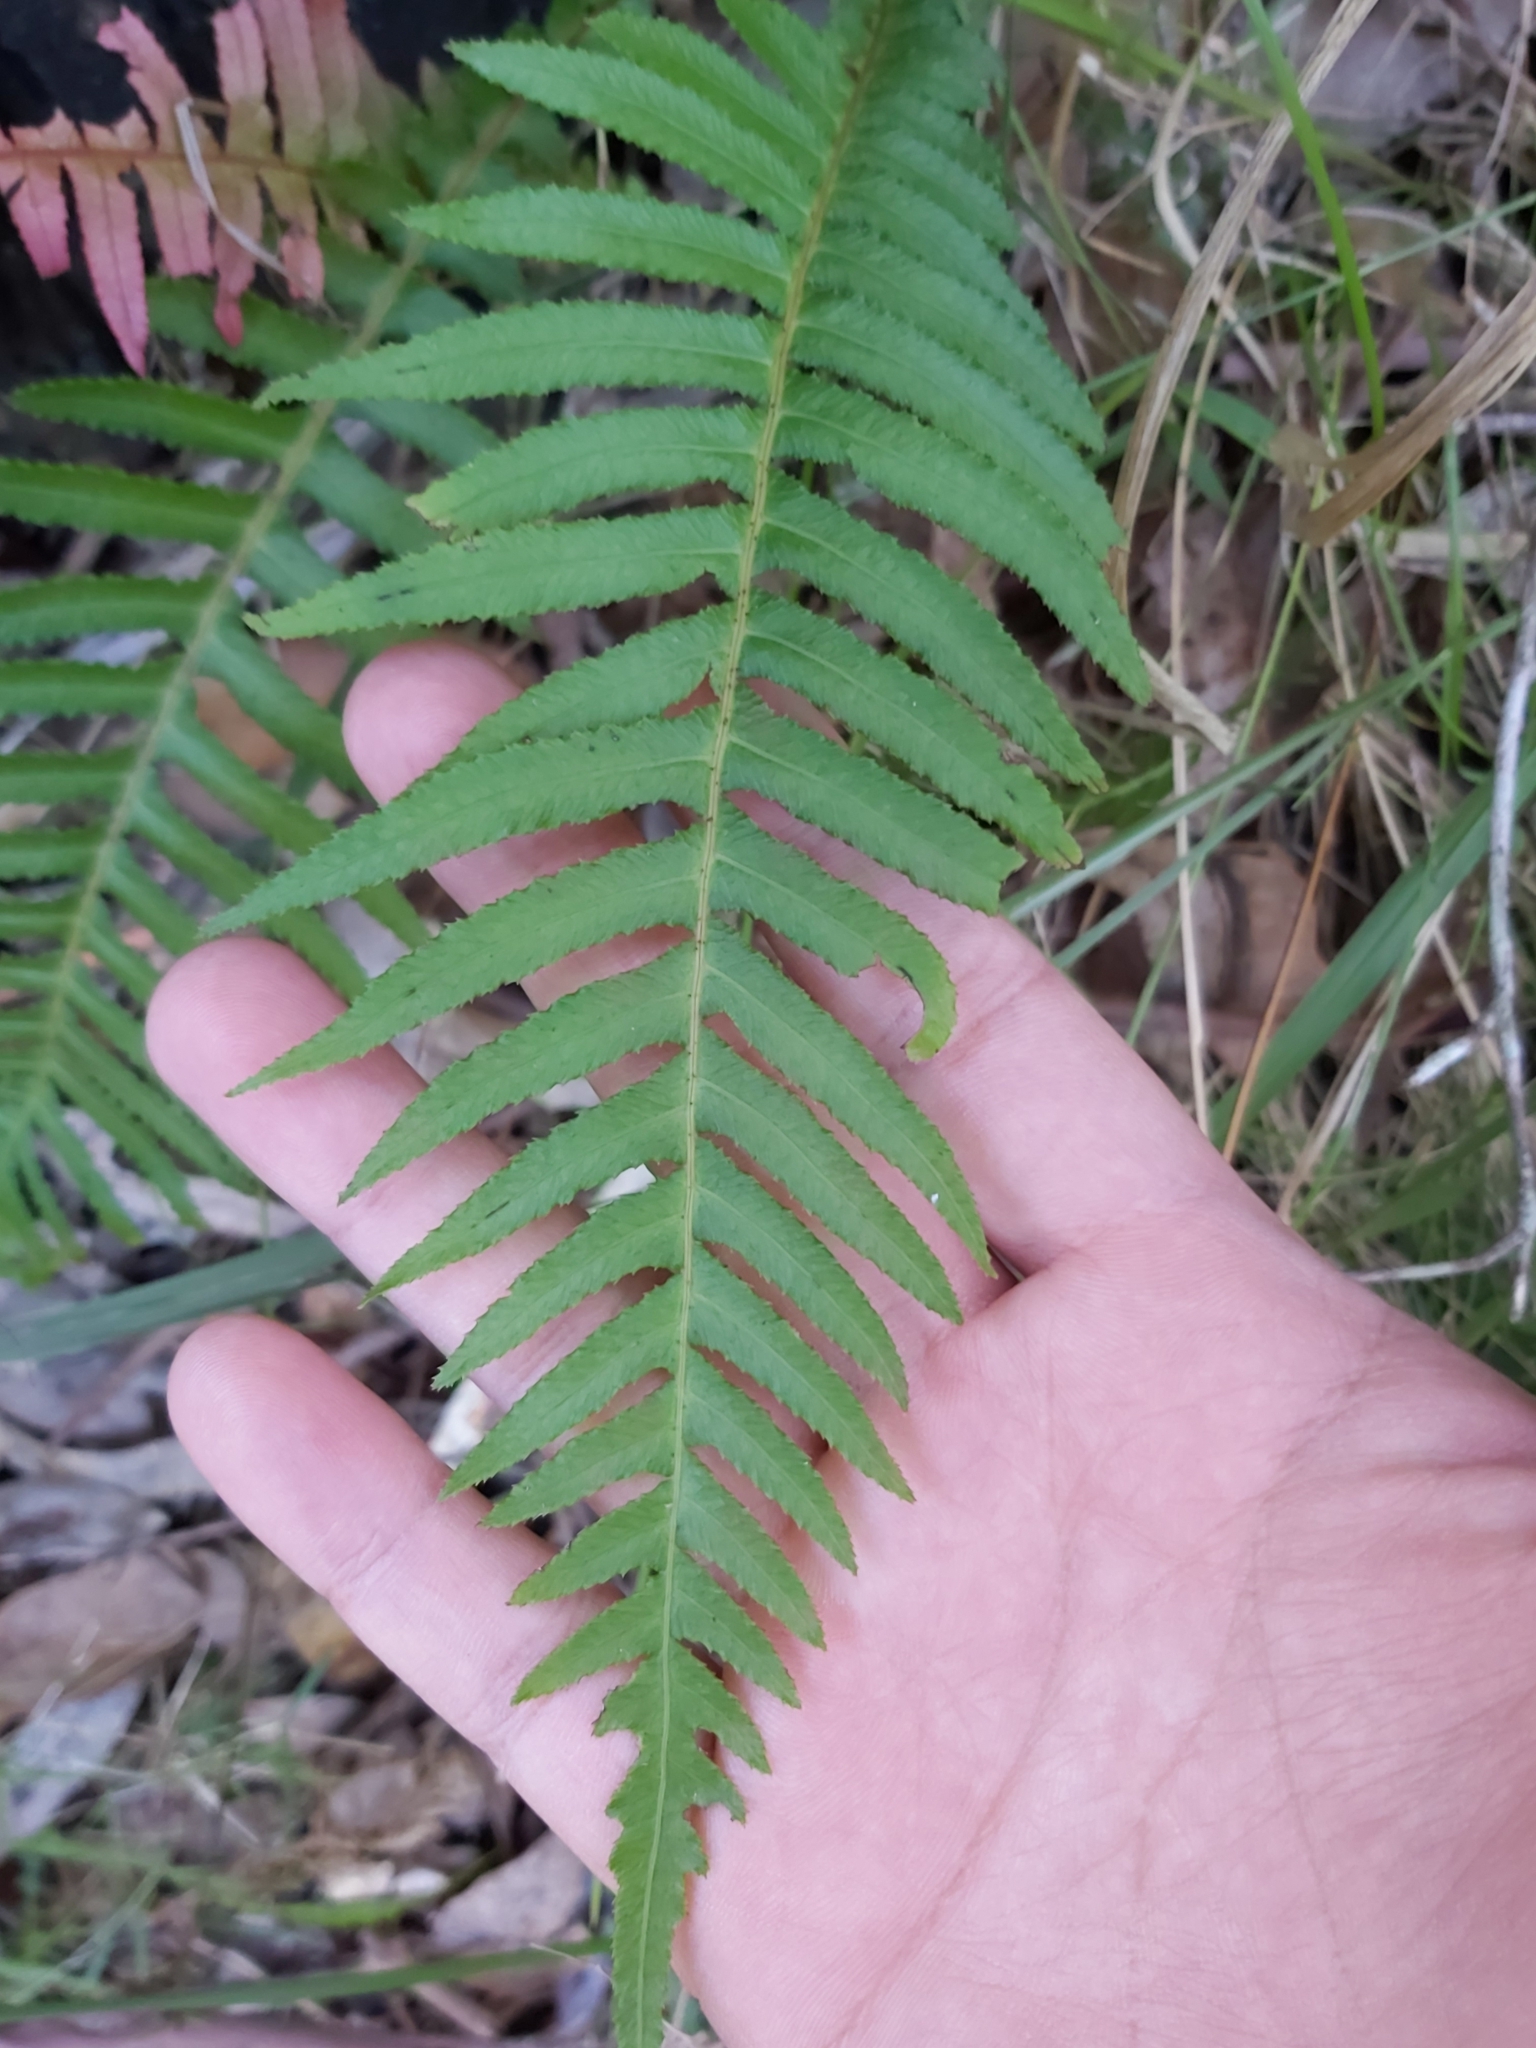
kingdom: Plantae
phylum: Tracheophyta
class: Polypodiopsida
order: Polypodiales
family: Blechnaceae
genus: Doodia
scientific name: Doodia aspera
